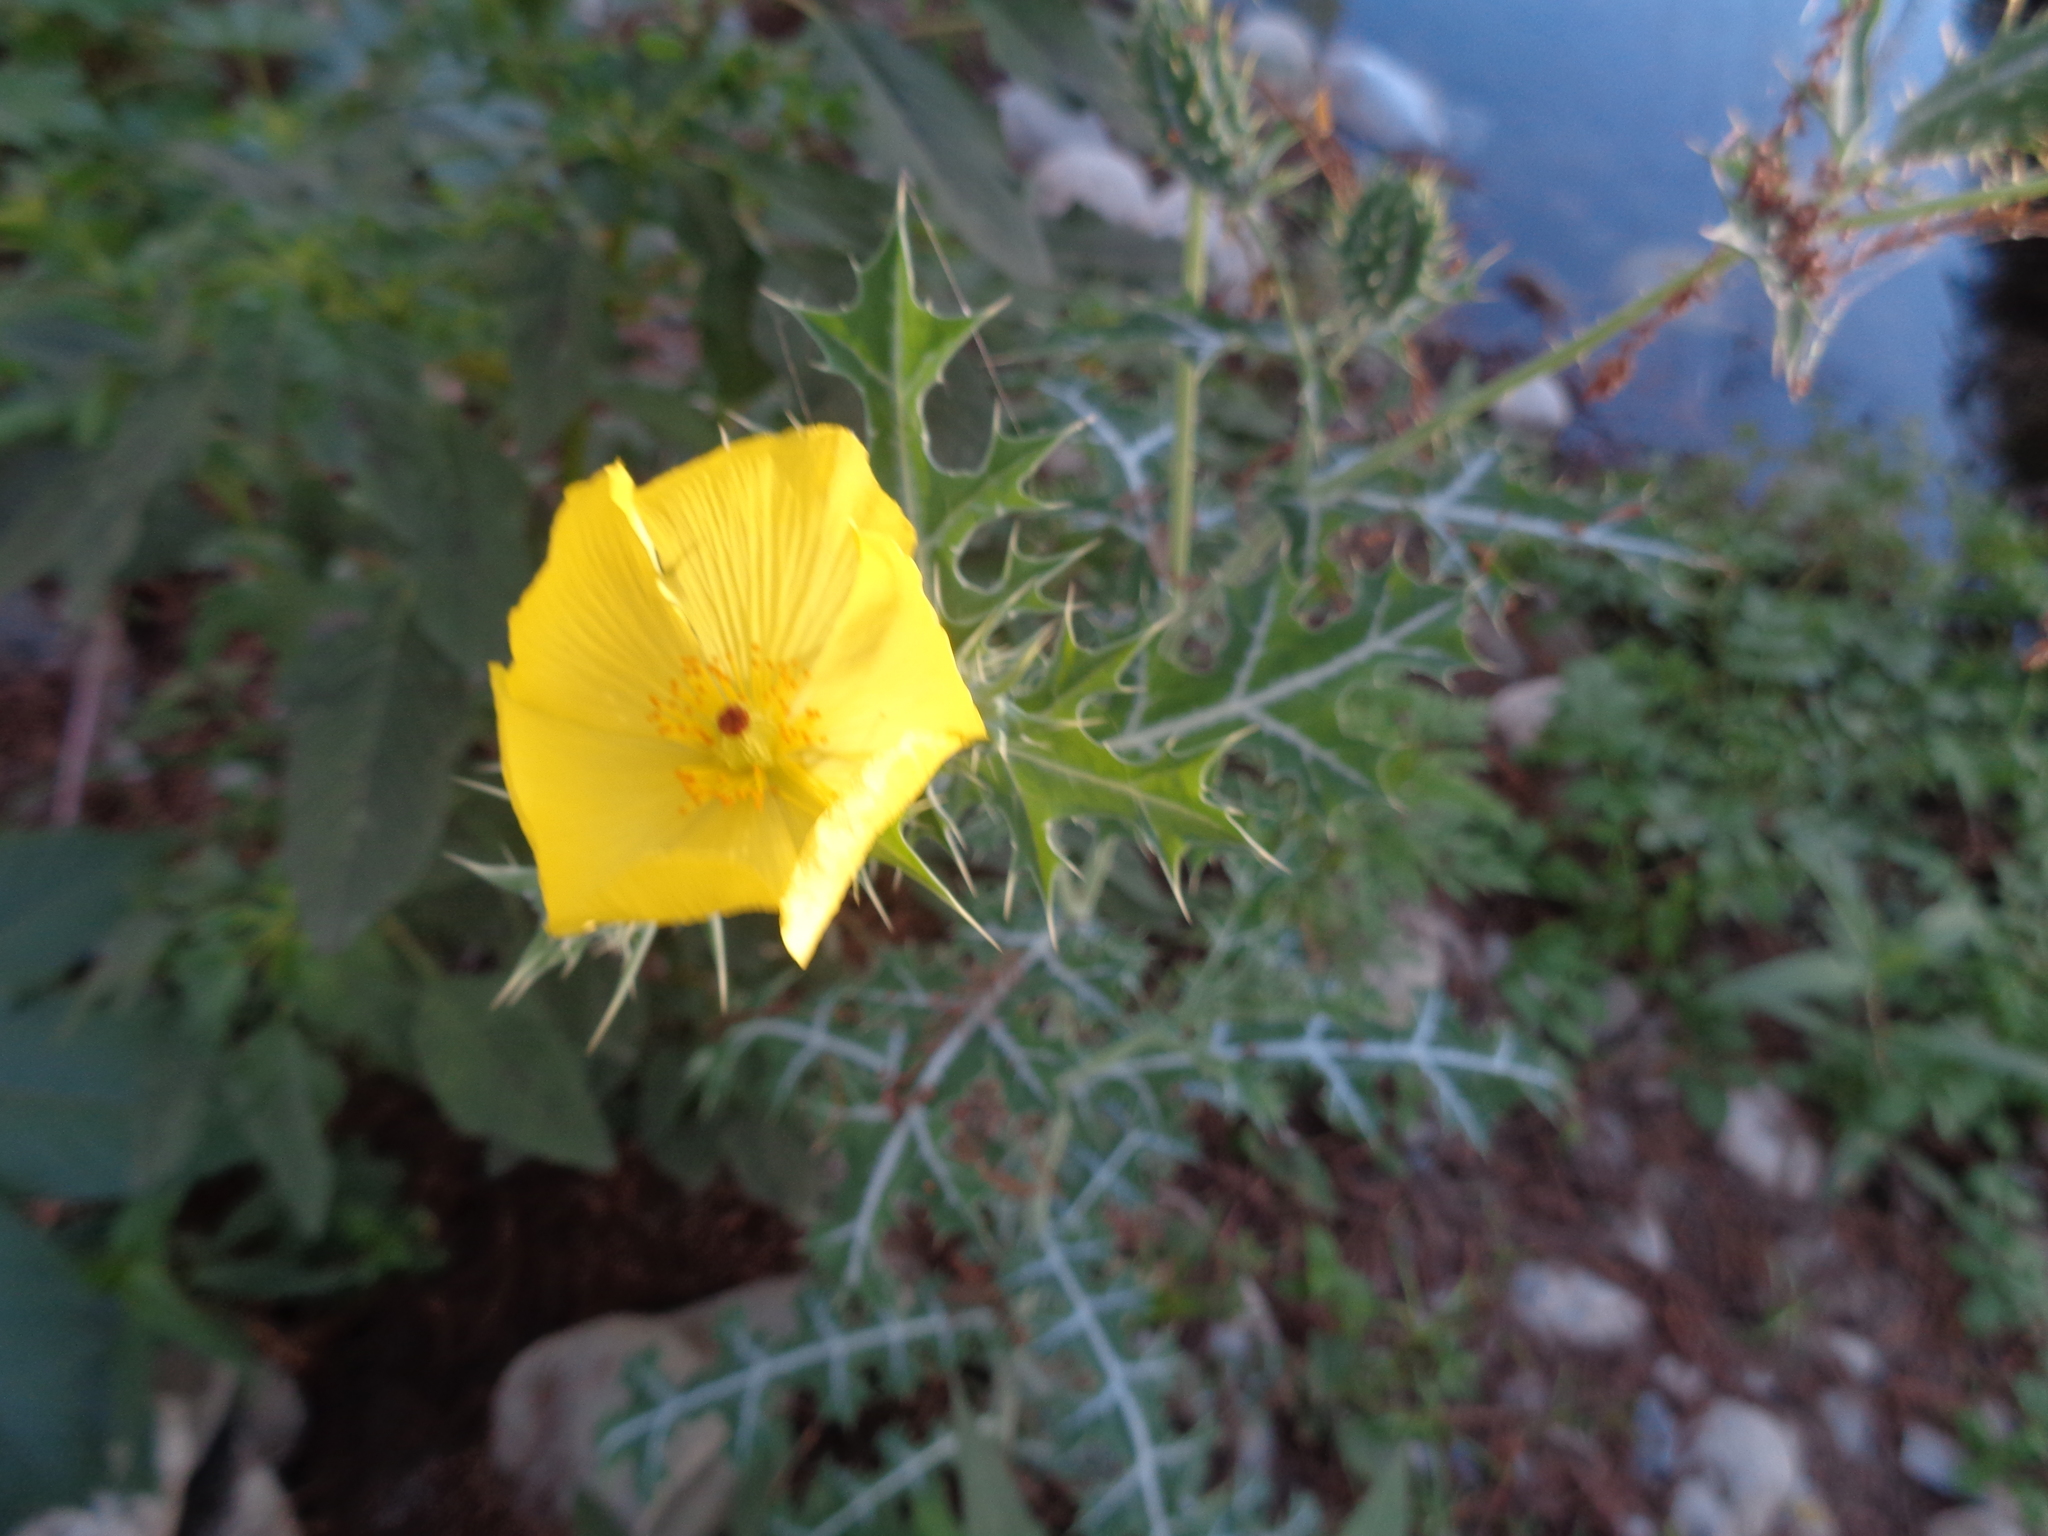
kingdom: Plantae
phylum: Tracheophyta
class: Magnoliopsida
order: Ranunculales
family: Papaveraceae
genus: Argemone
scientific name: Argemone mexicana
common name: Mexican poppy
